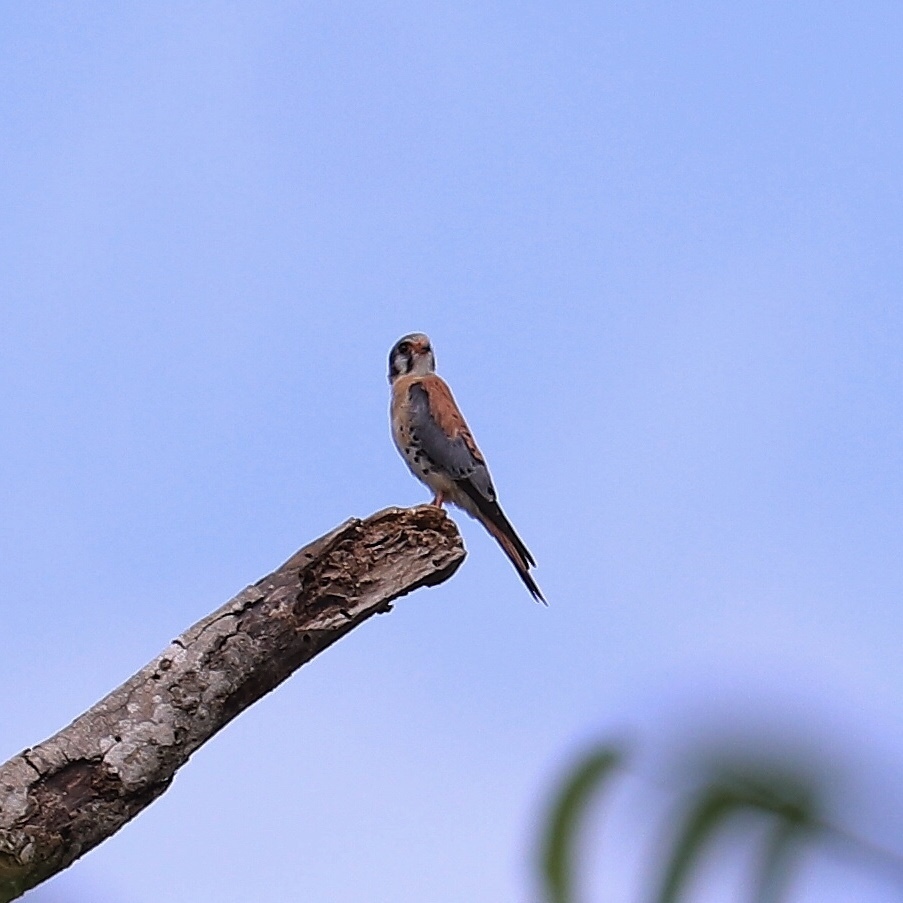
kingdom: Animalia
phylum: Chordata
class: Aves
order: Falconiformes
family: Falconidae
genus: Falco
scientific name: Falco sparverius
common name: American kestrel
